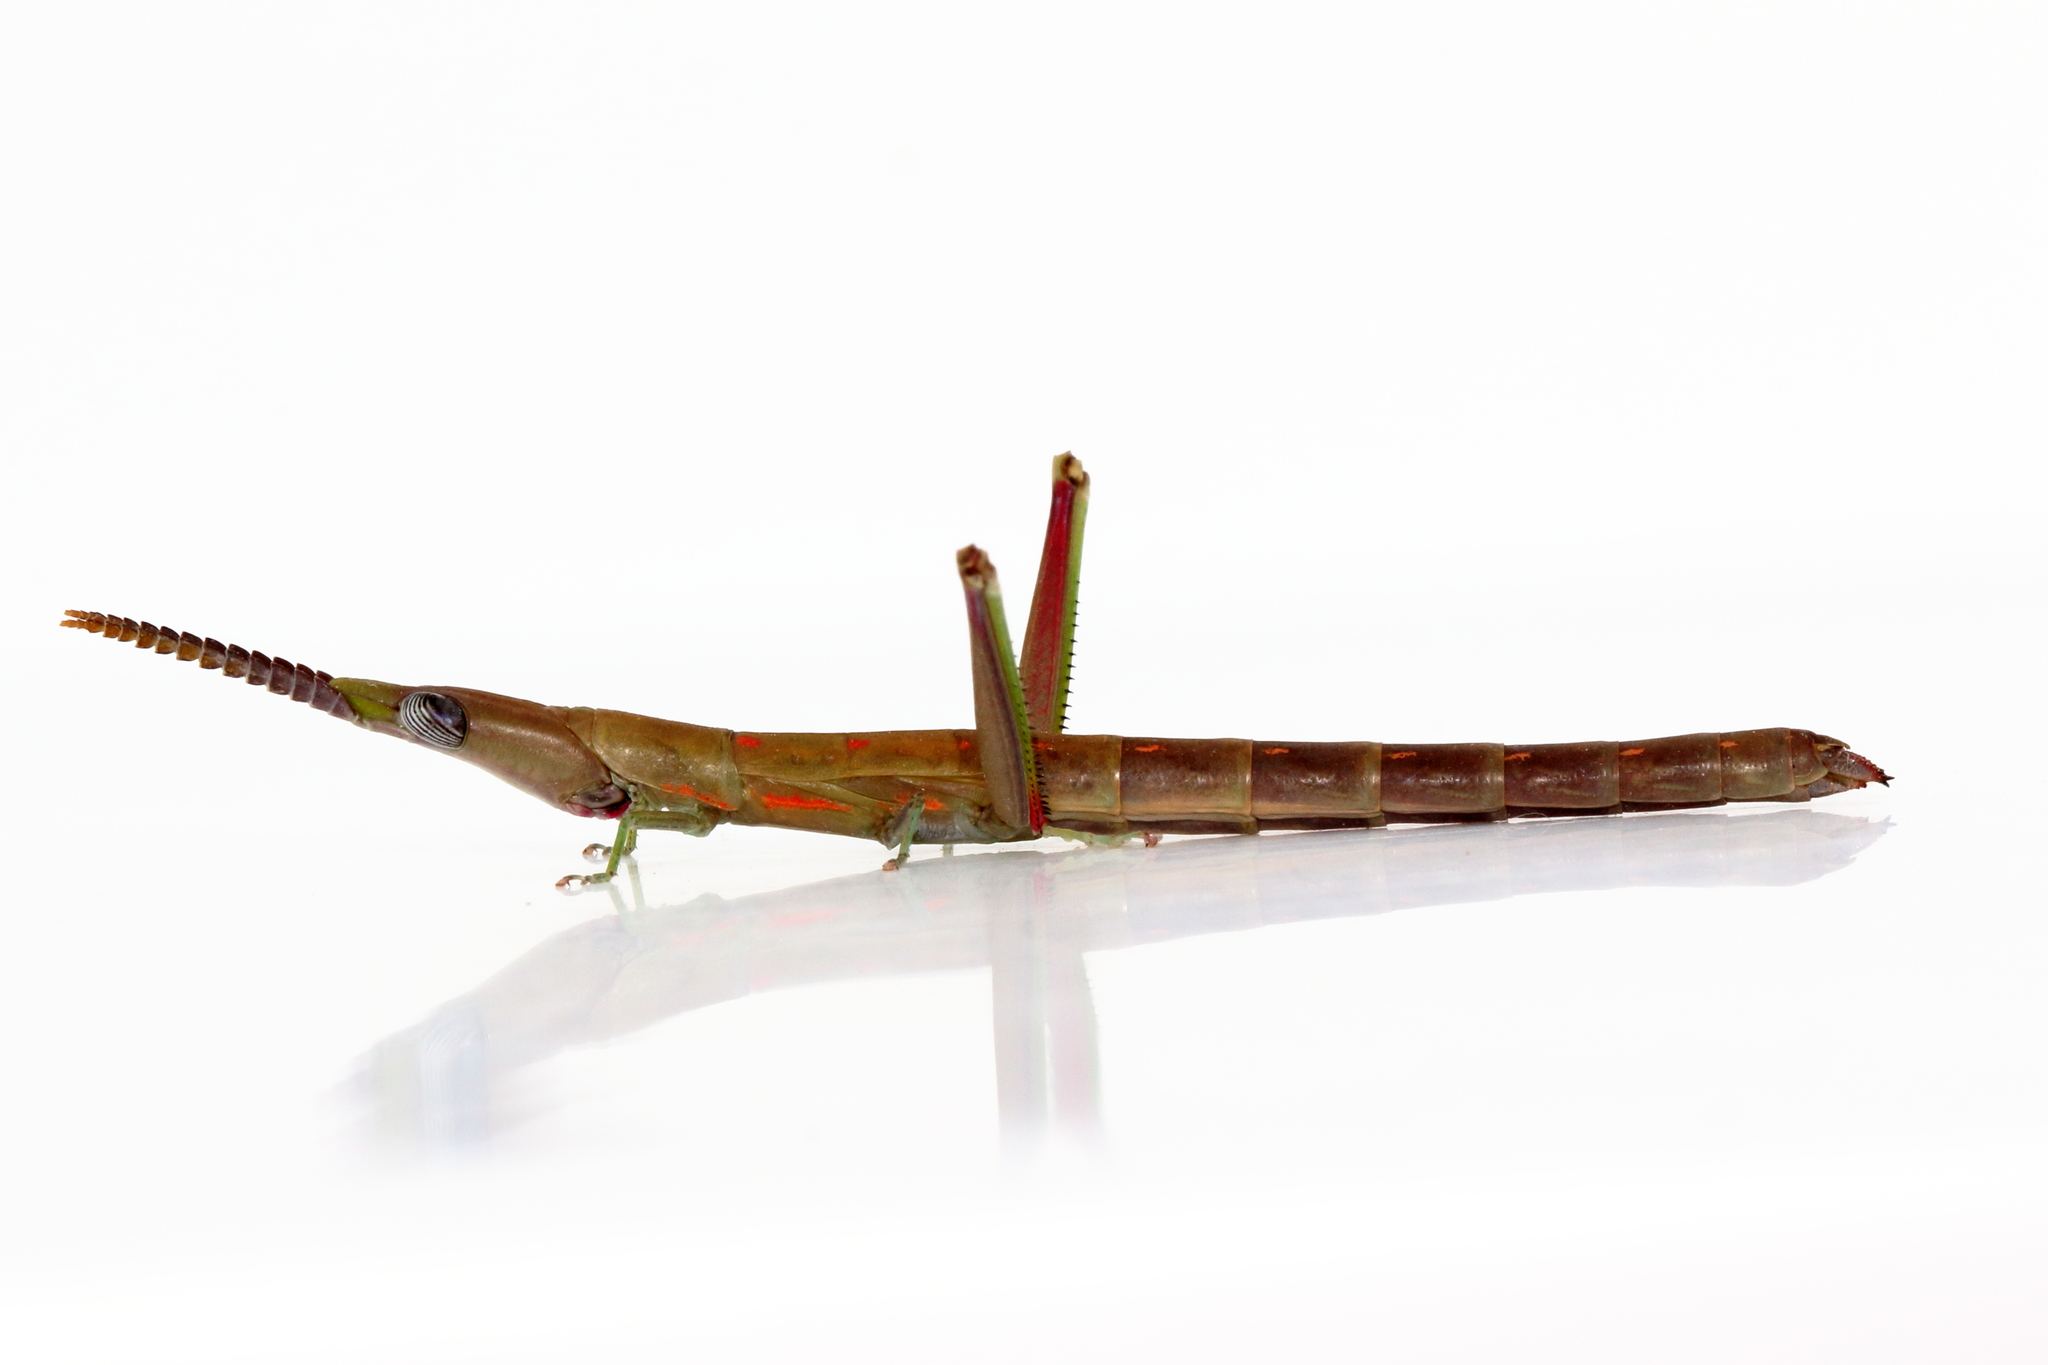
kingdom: Animalia
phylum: Arthropoda
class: Insecta
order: Orthoptera
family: Morabidae
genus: Warramaba
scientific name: Warramaba grandis
